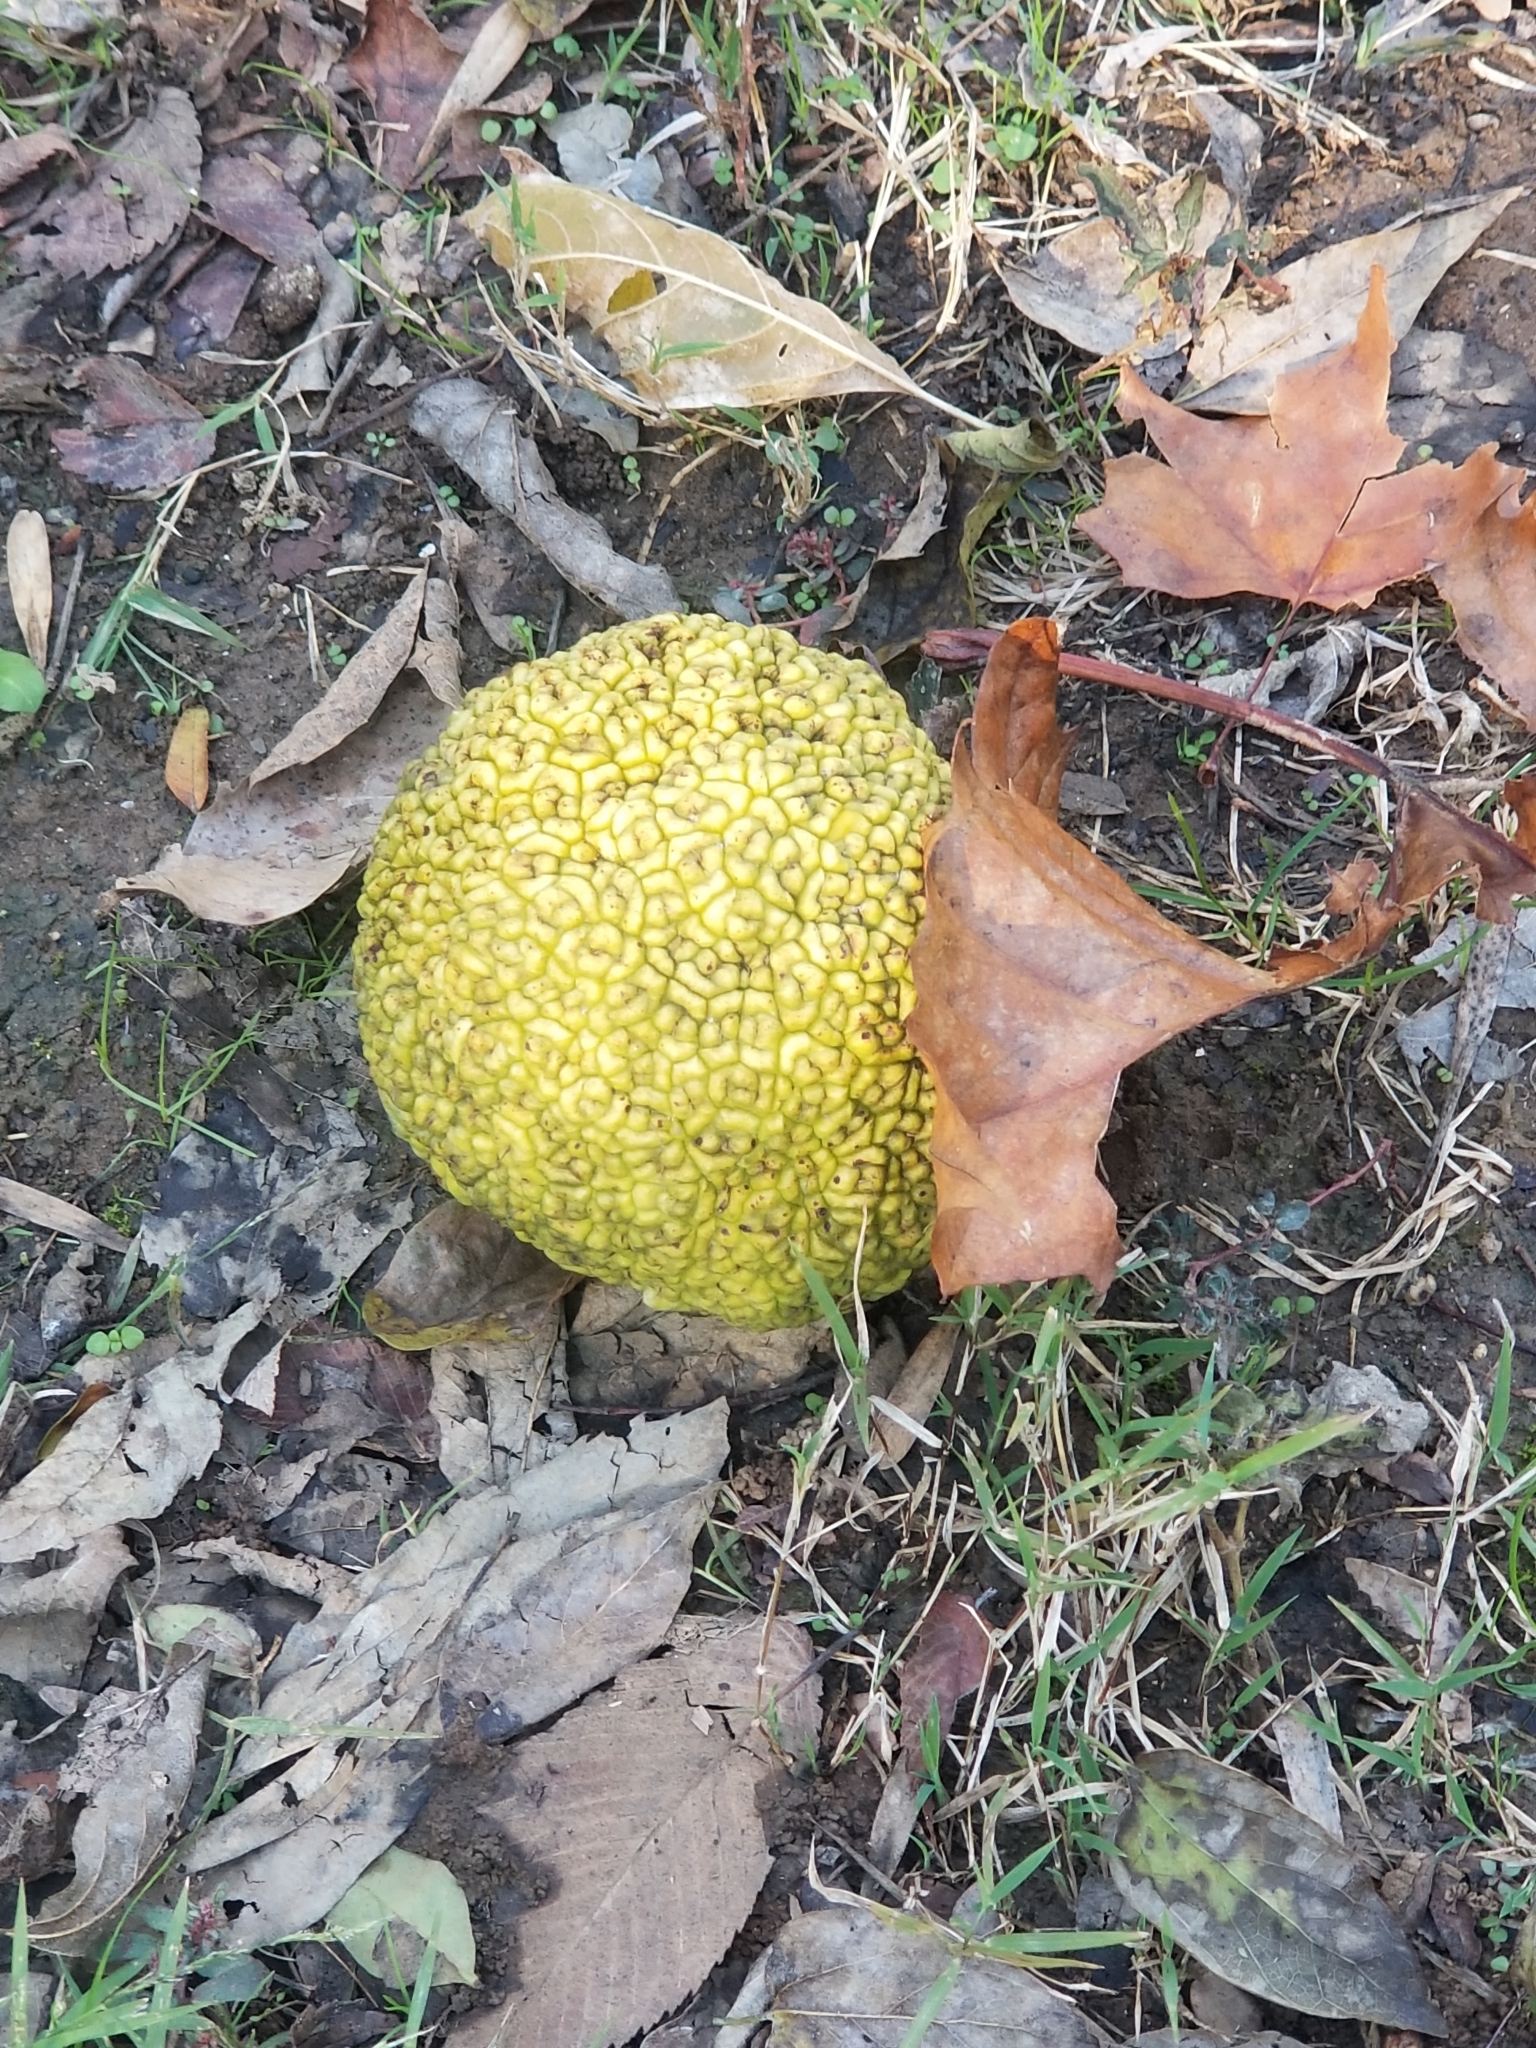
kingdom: Plantae
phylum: Tracheophyta
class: Magnoliopsida
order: Rosales
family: Moraceae
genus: Maclura
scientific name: Maclura pomifera
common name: Osage-orange
